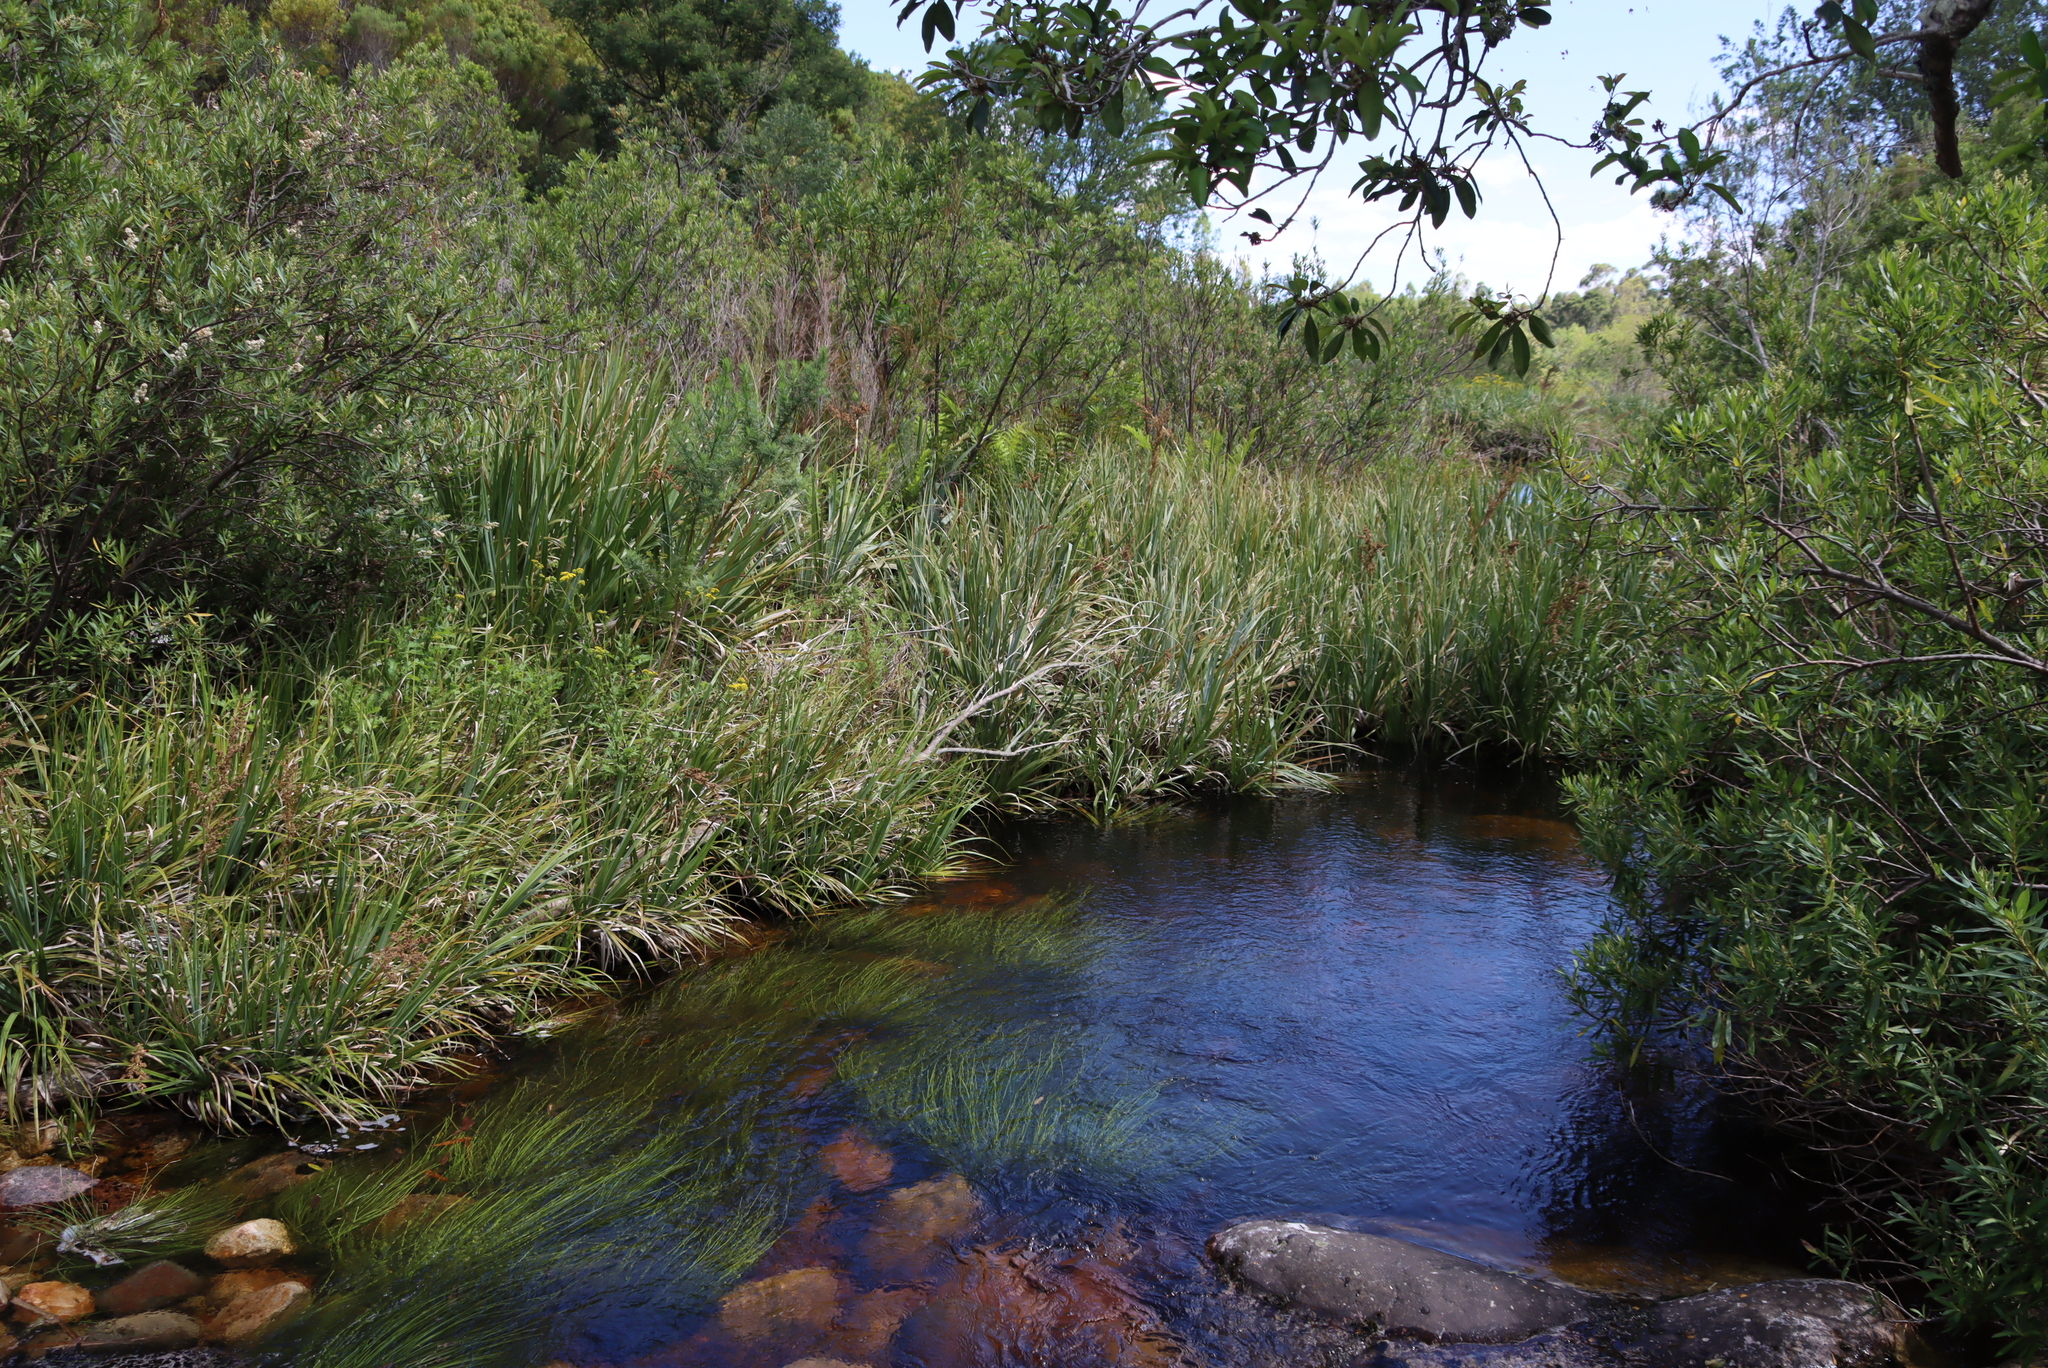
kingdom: Plantae
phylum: Tracheophyta
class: Liliopsida
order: Poales
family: Thurniaceae
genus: Prionium
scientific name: Prionium serratum
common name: Palmiet
